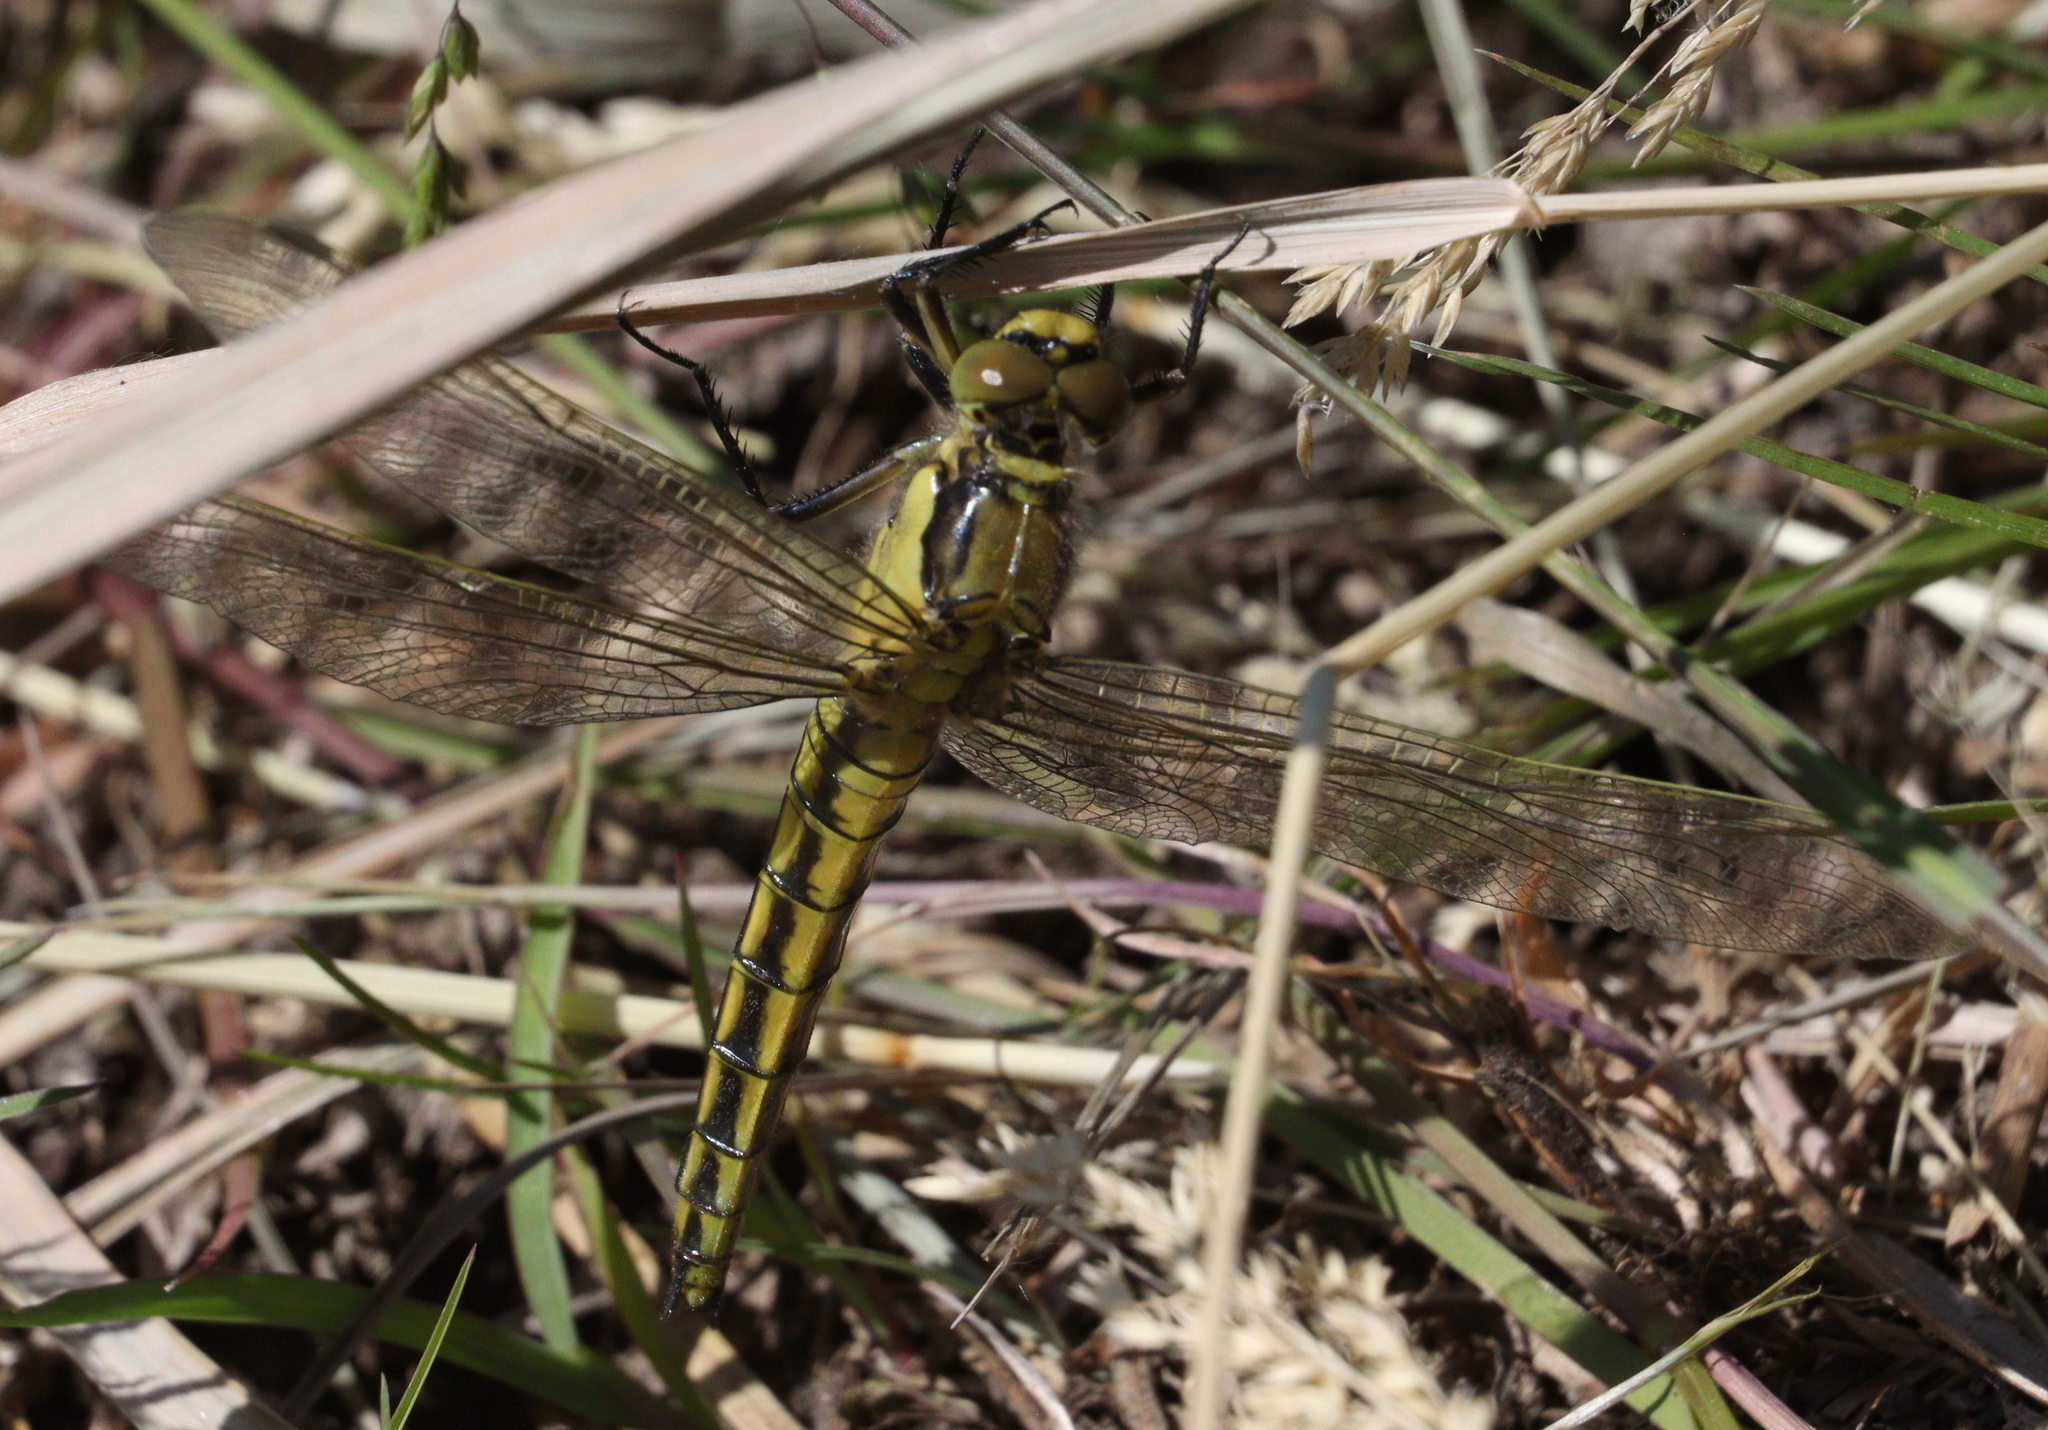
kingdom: Animalia
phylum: Arthropoda
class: Insecta
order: Odonata
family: Libellulidae
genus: Orthetrum
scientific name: Orthetrum cancellatum
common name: Black-tailed skimmer
